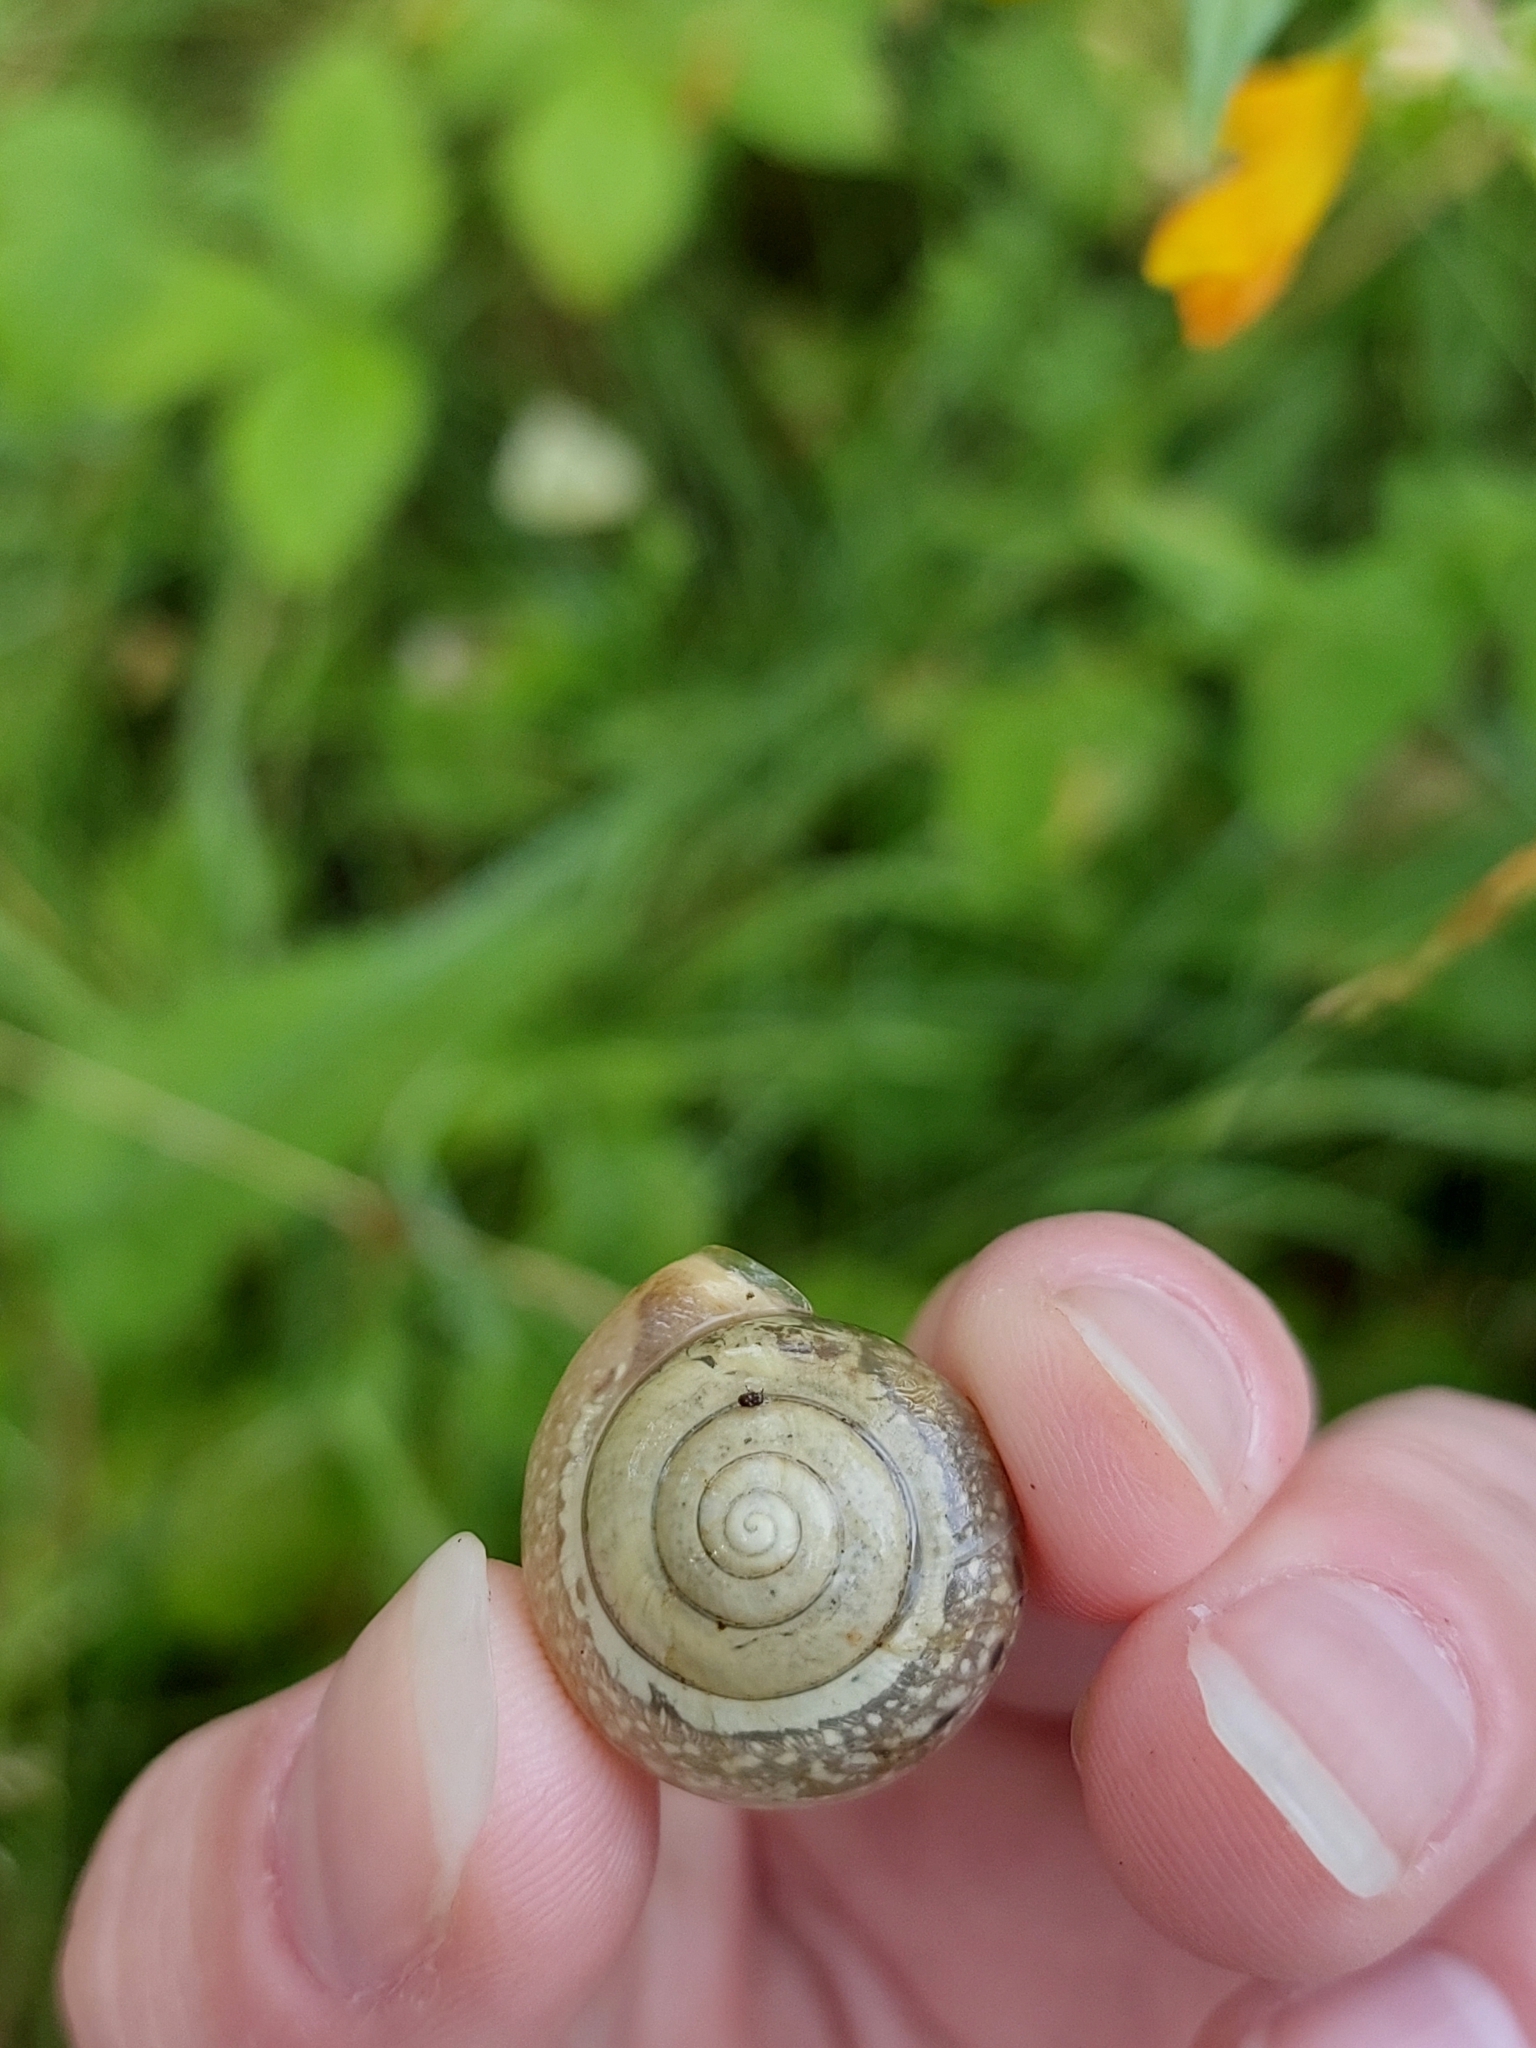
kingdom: Animalia
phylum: Mollusca
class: Gastropoda
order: Stylommatophora
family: Camaenidae
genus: Fruticicola
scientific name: Fruticicola fruticum
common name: Bush snail
